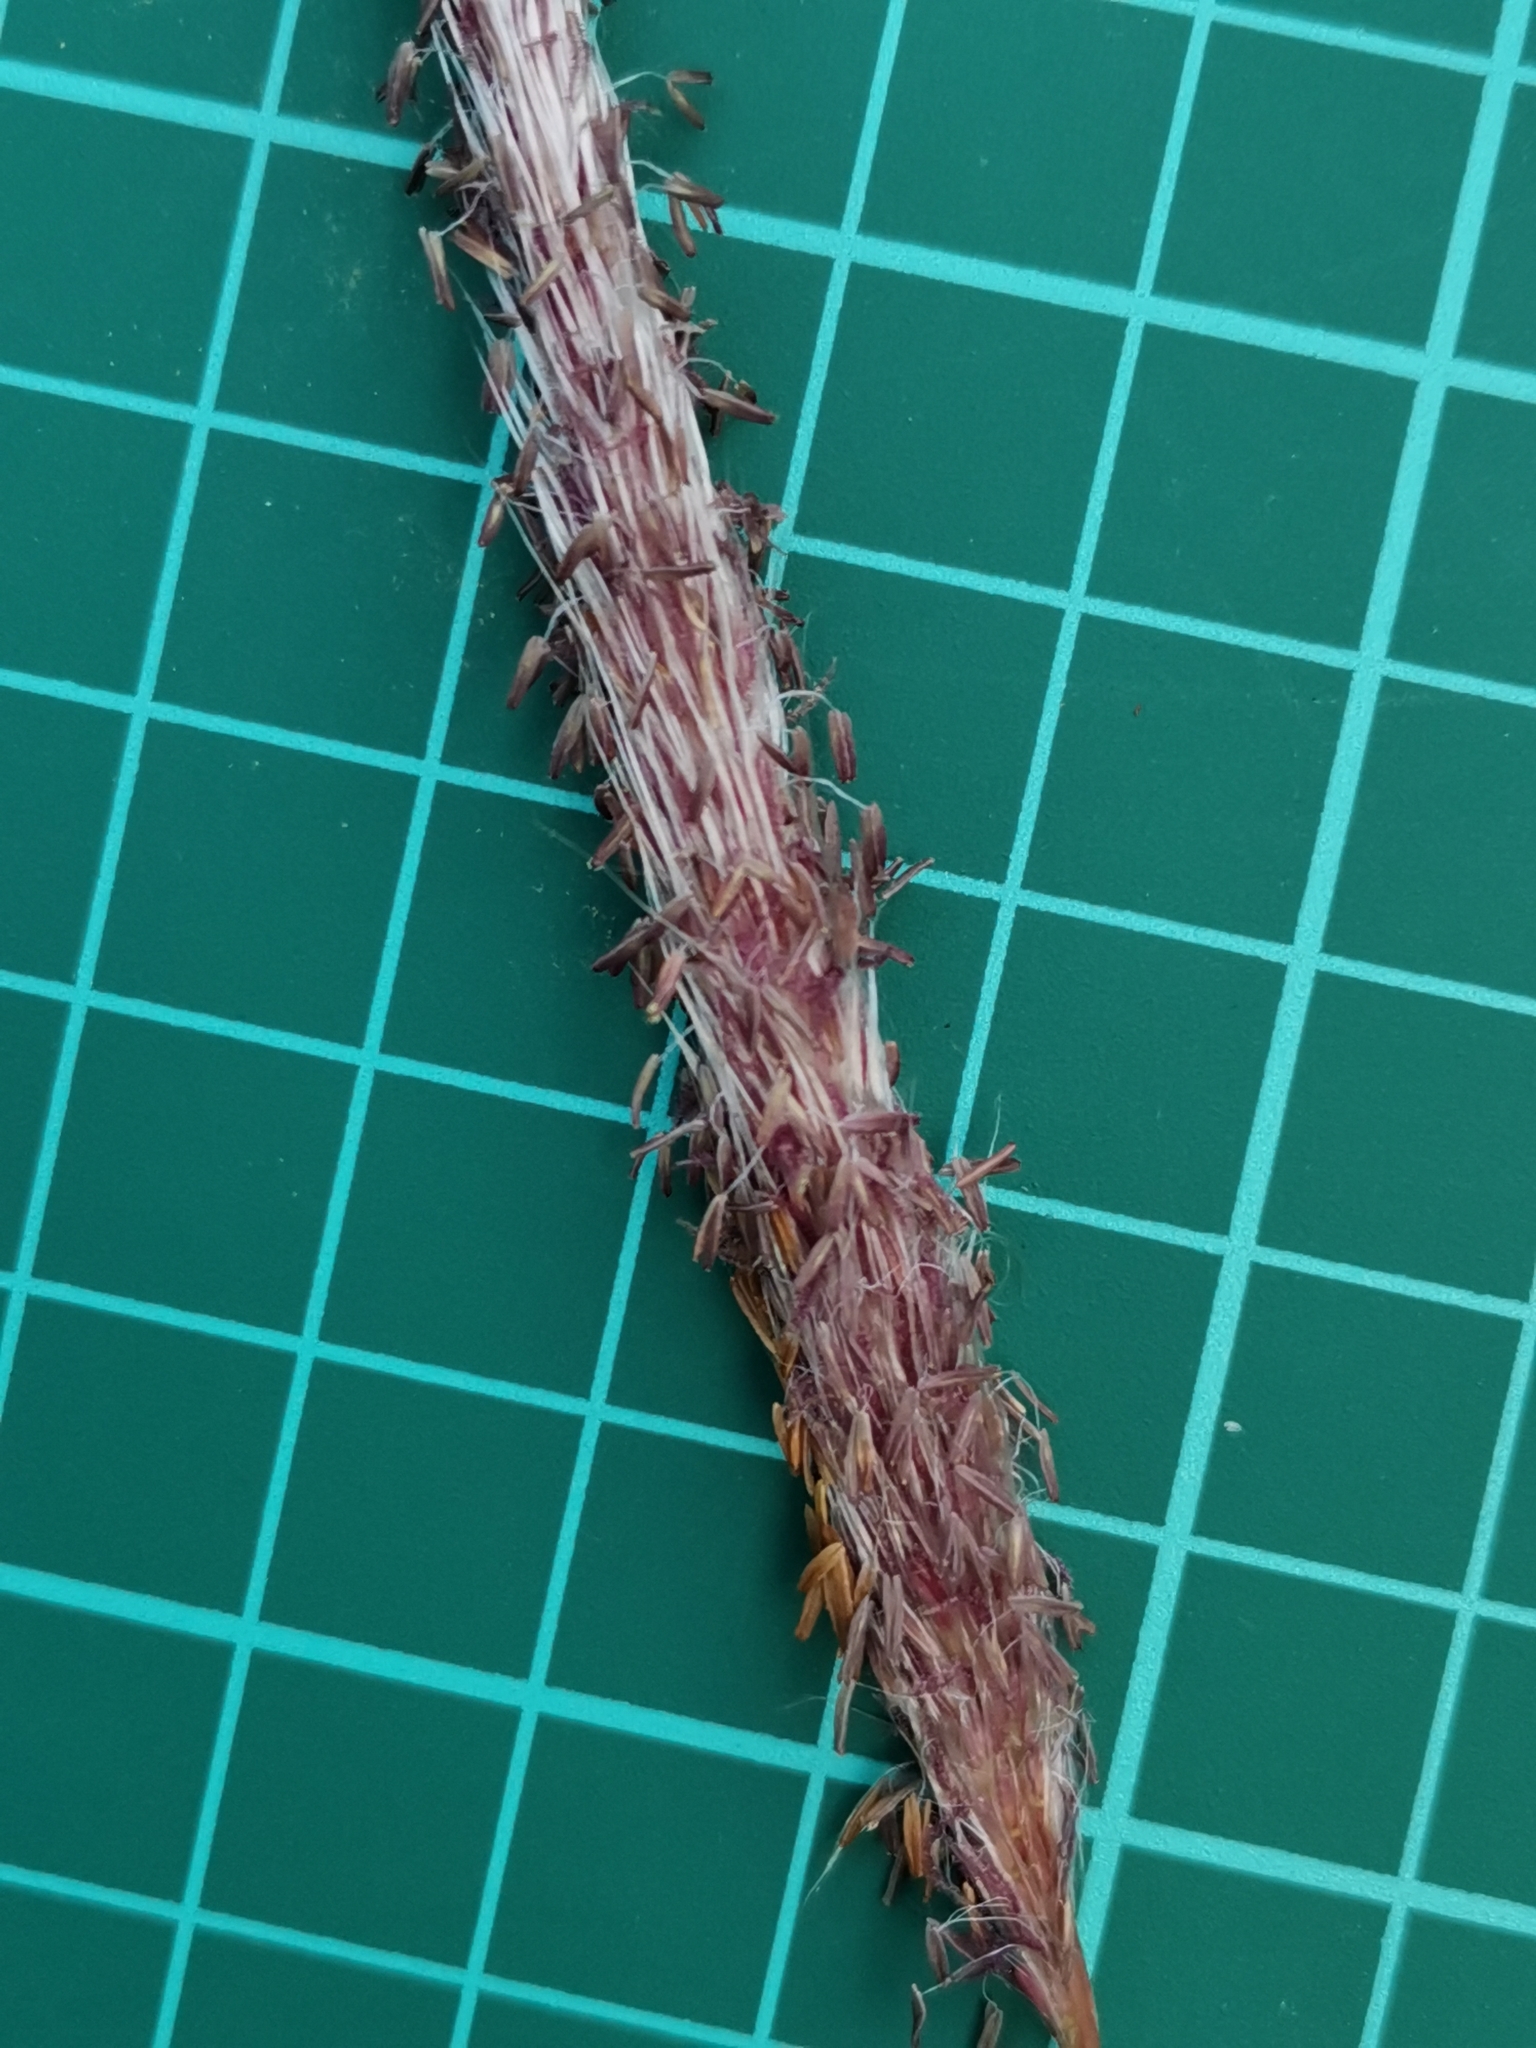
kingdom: Plantae
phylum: Tracheophyta
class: Liliopsida
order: Poales
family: Poaceae
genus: Imperata
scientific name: Imperata cylindrica
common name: Cogongrass
